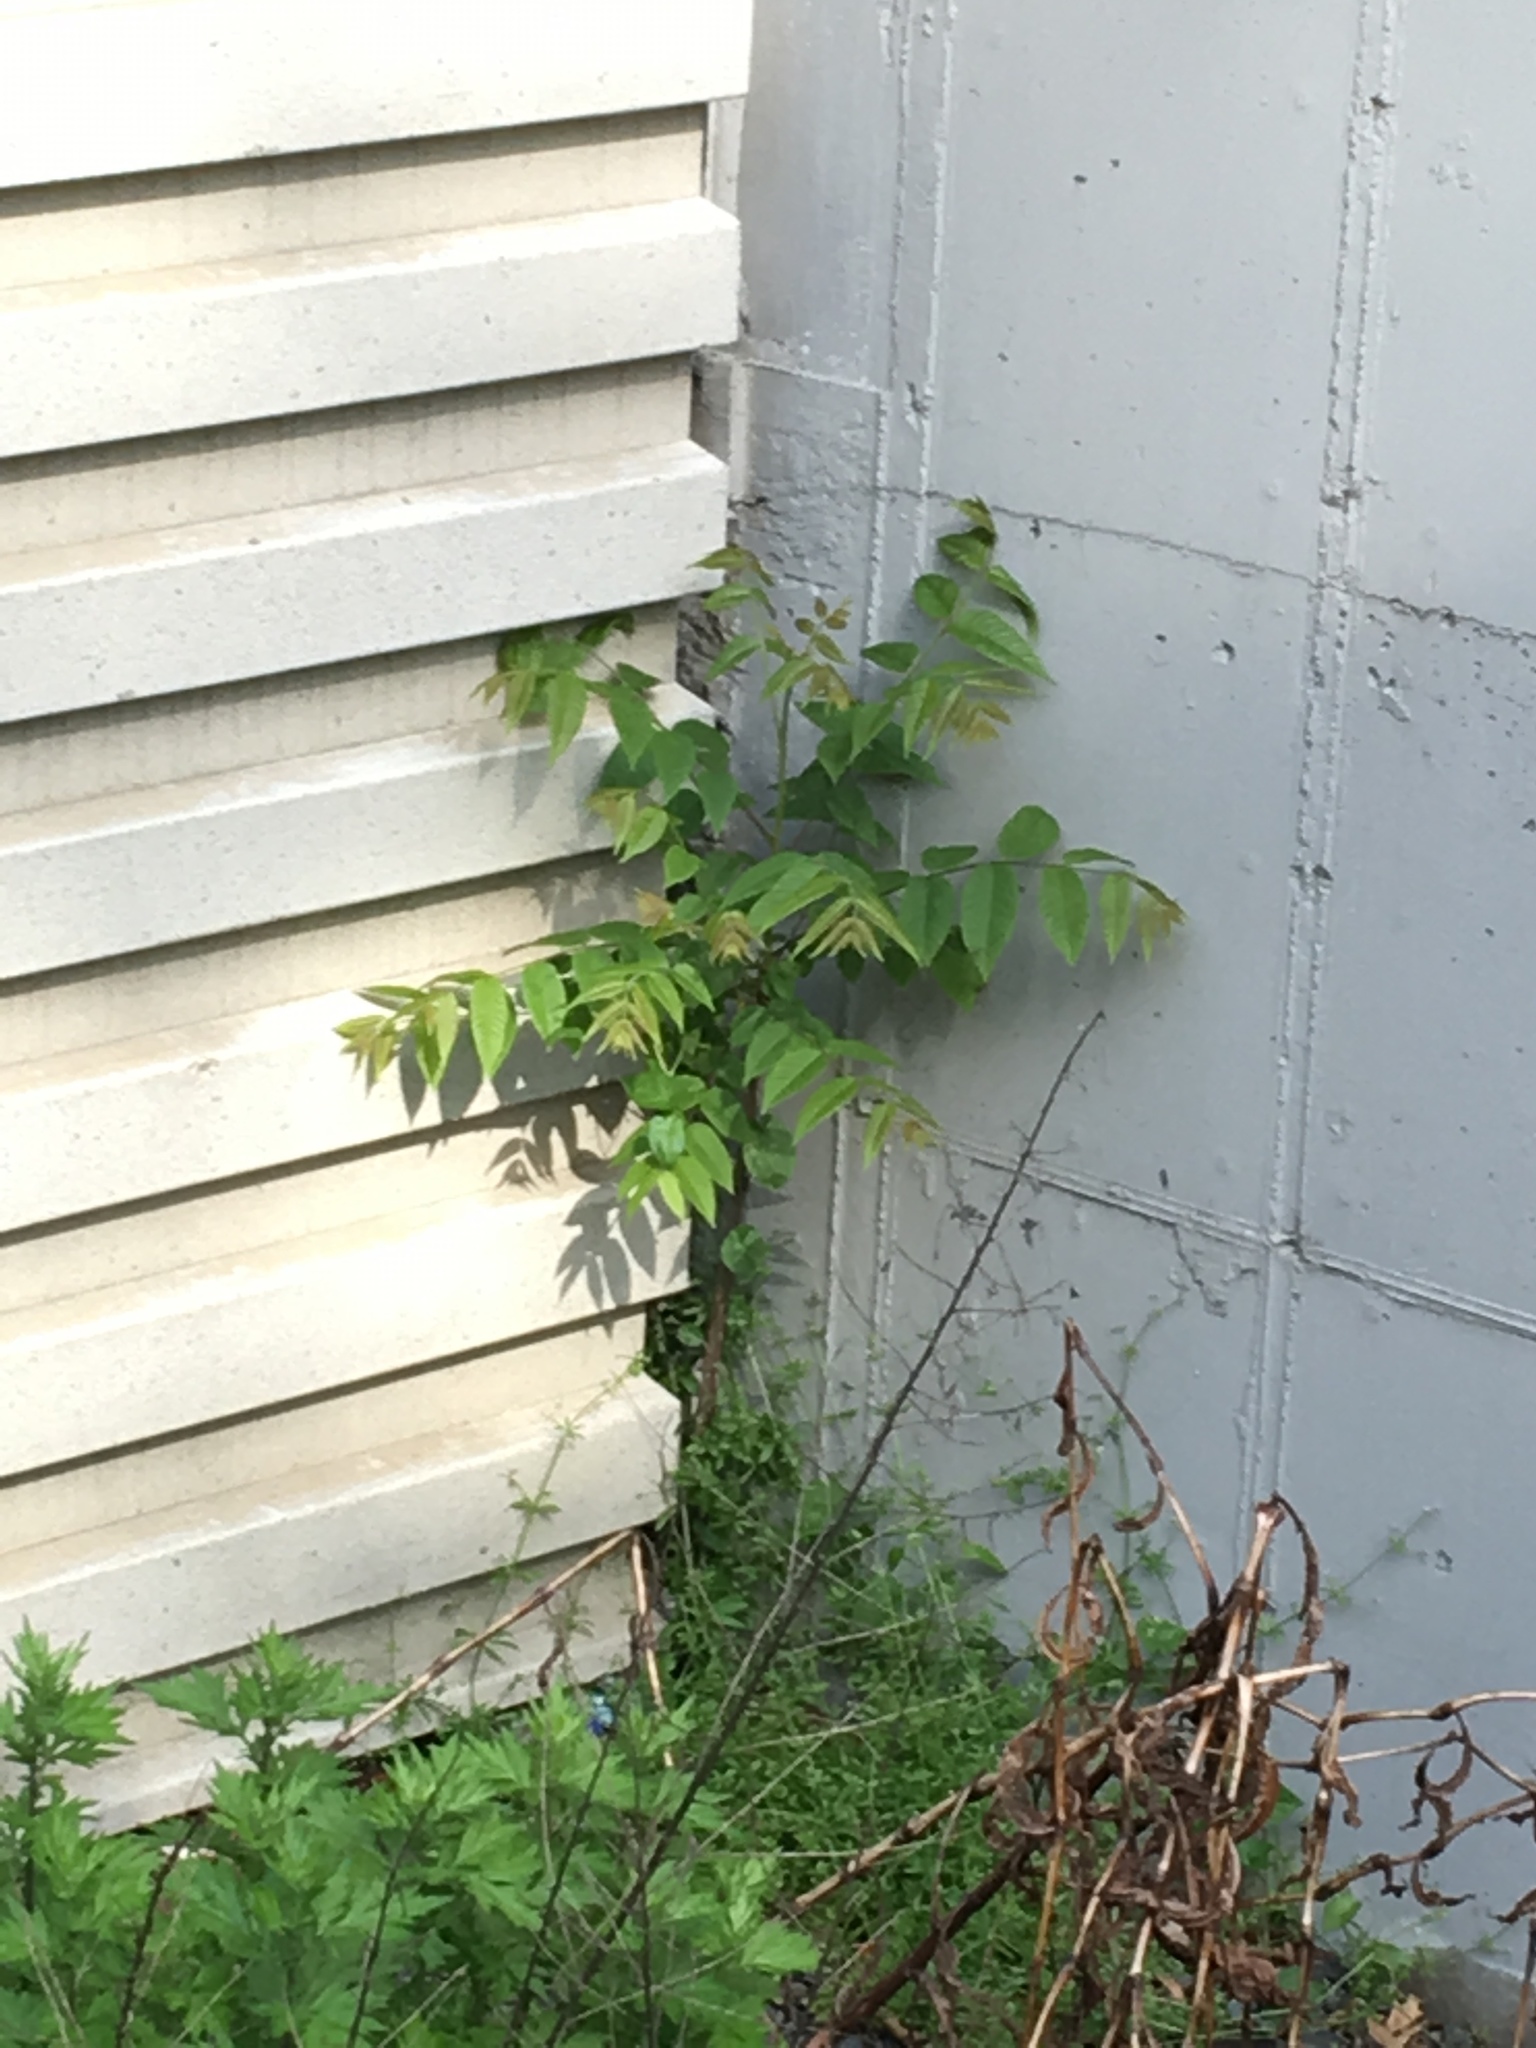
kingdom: Plantae
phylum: Tracheophyta
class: Magnoliopsida
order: Sapindales
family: Simaroubaceae
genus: Ailanthus
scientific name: Ailanthus altissima
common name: Tree-of-heaven
